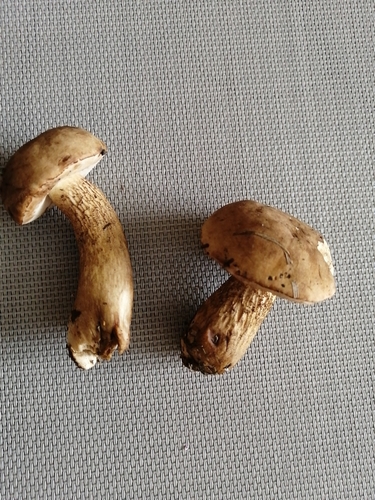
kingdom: Fungi
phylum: Basidiomycota
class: Agaricomycetes
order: Boletales
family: Boletaceae
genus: Tylopilus
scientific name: Tylopilus felleus
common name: Bitter bolete
